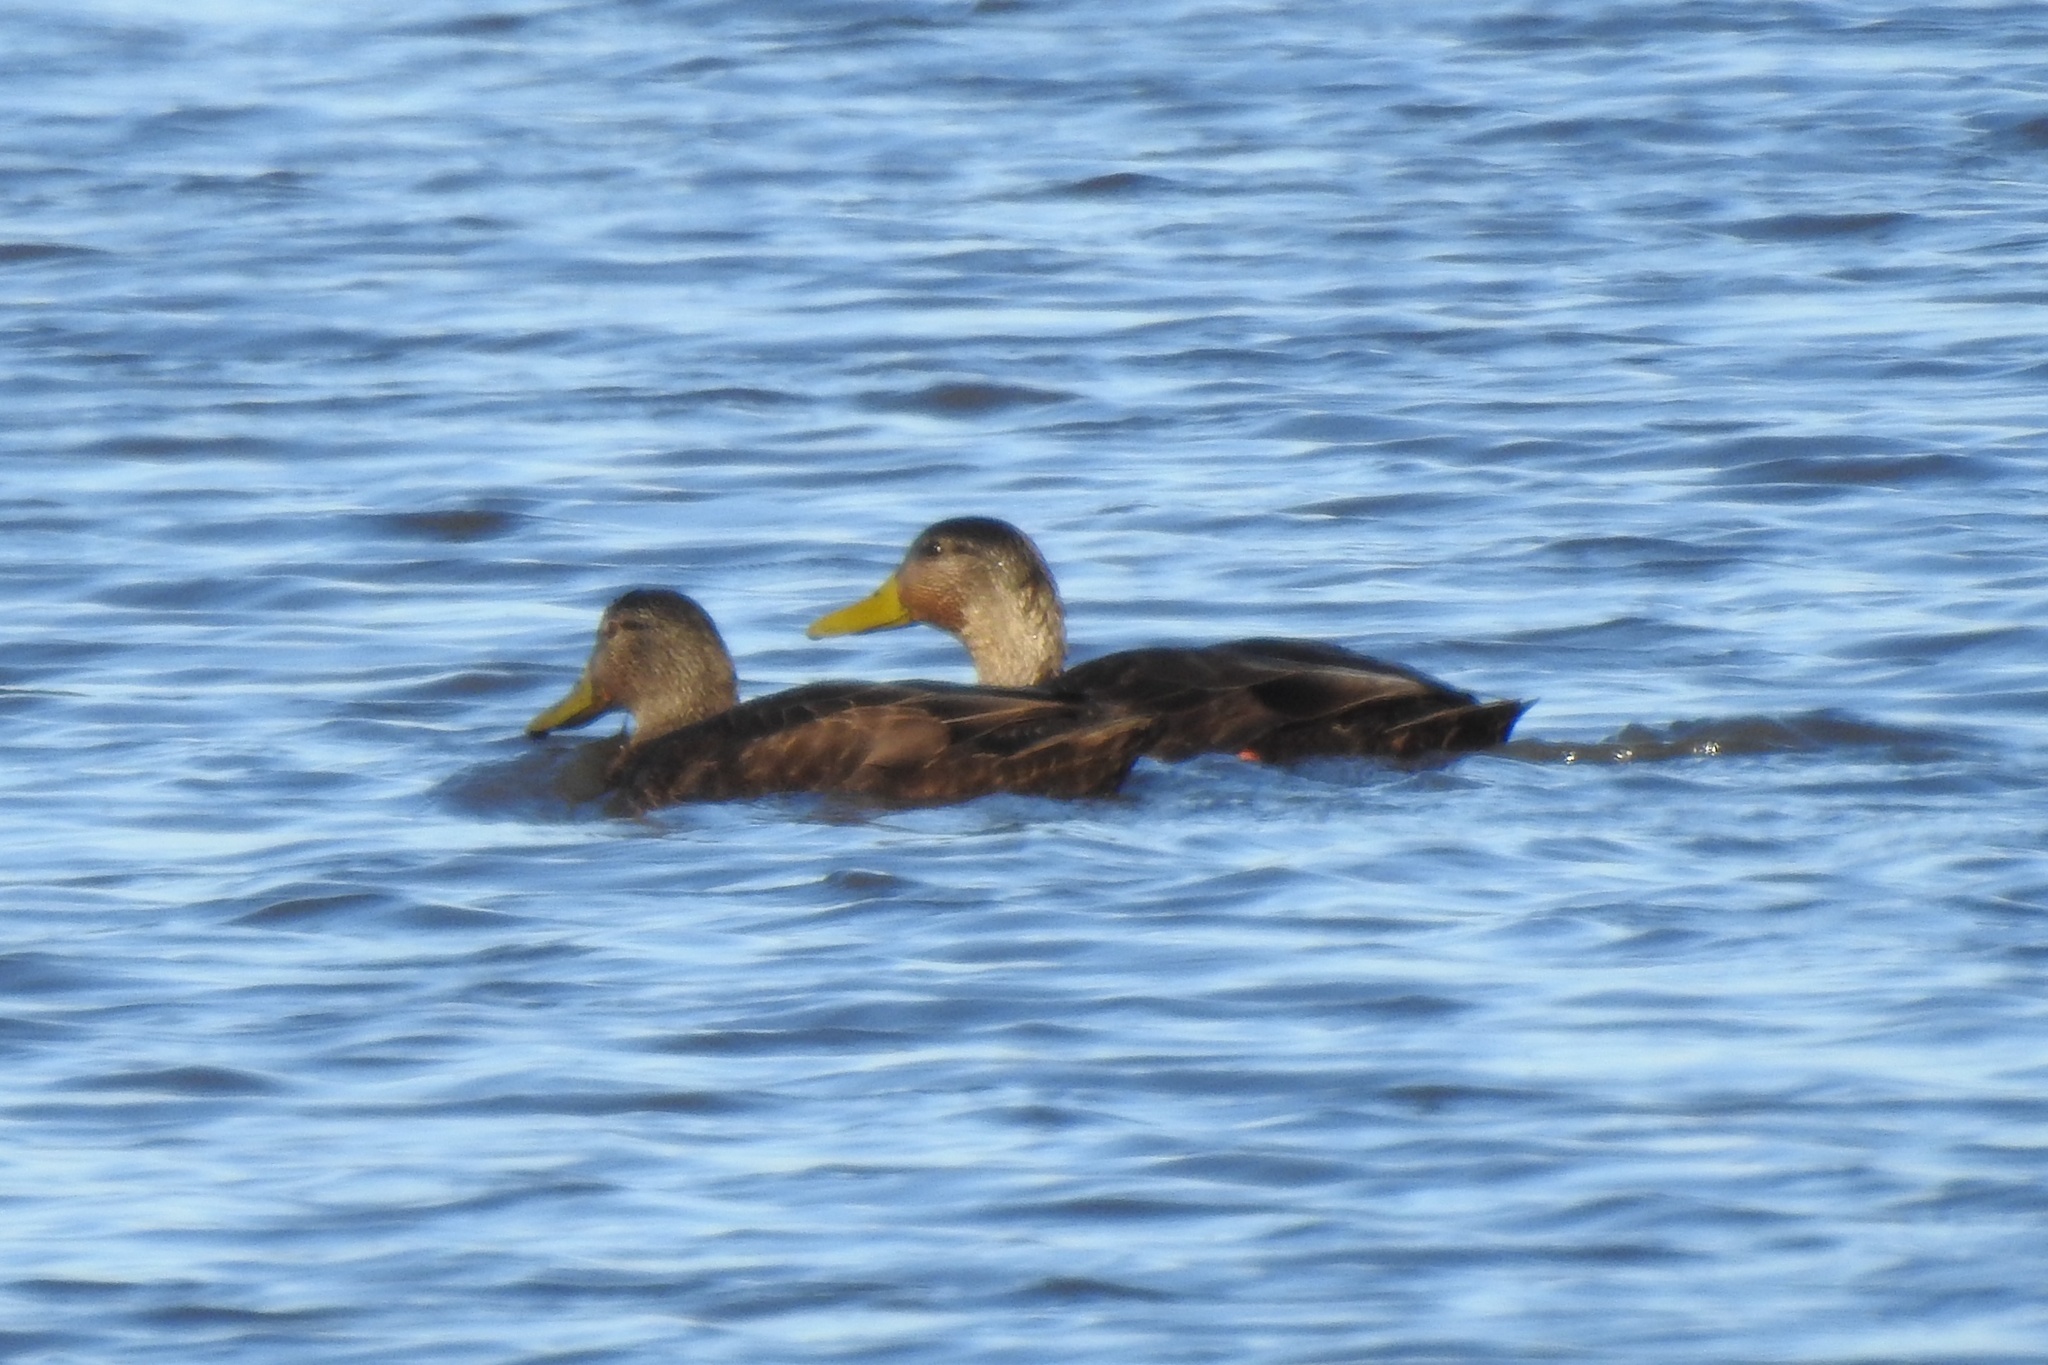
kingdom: Animalia
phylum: Chordata
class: Aves
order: Anseriformes
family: Anatidae
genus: Anas
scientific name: Anas rubripes
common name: American black duck
